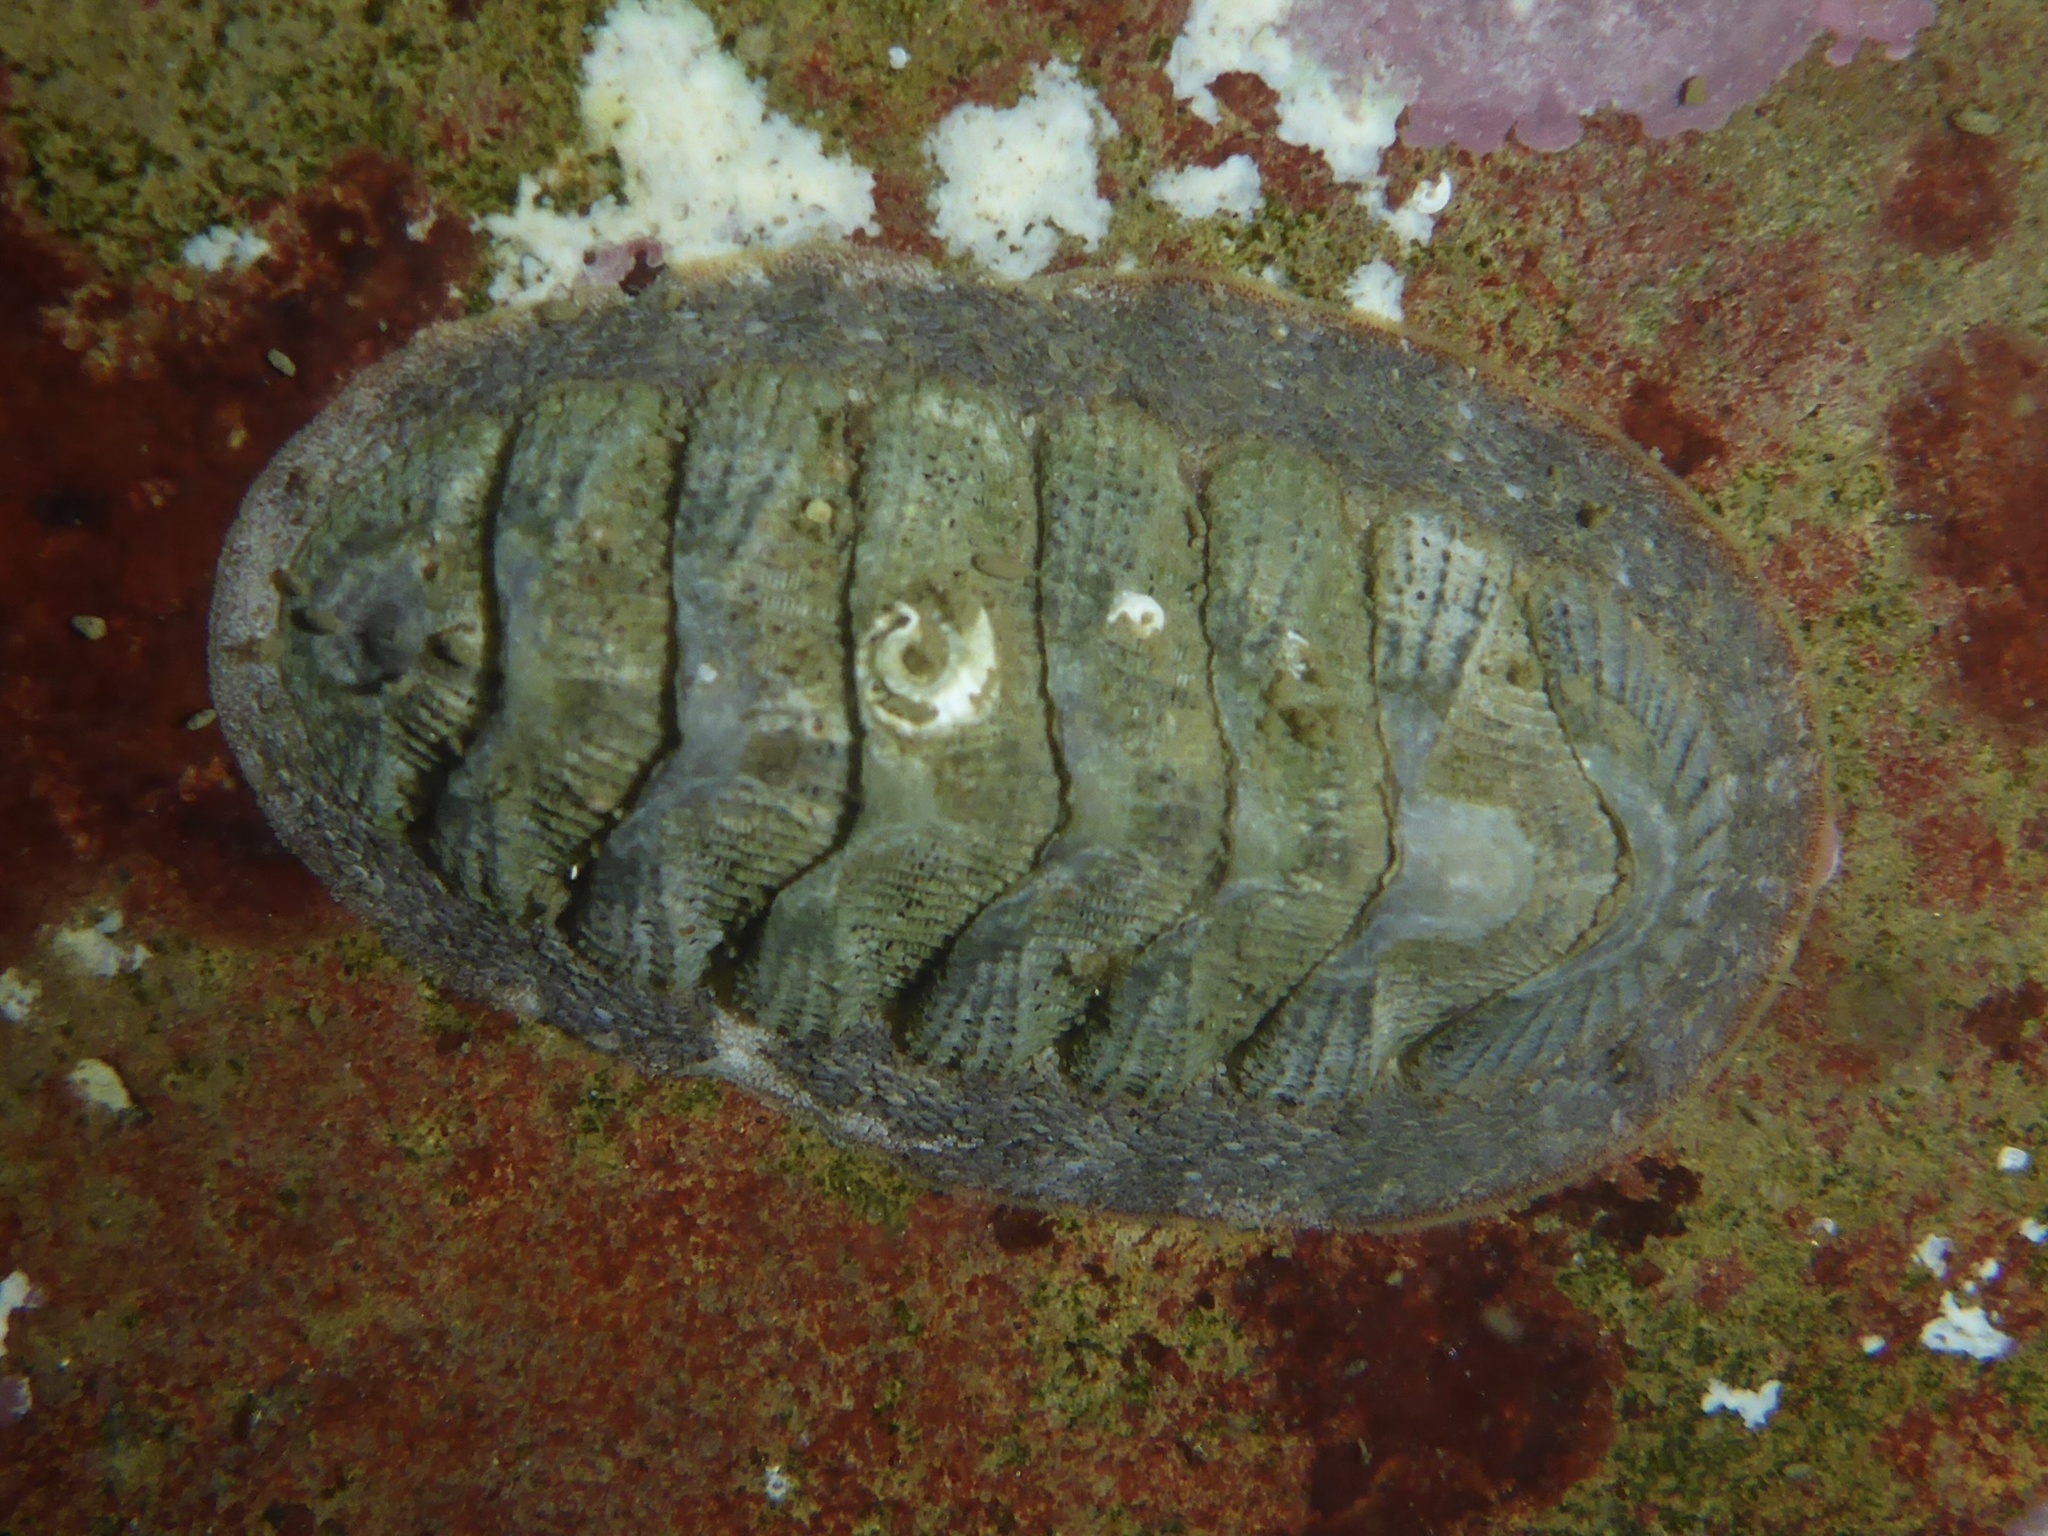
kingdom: Animalia
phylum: Mollusca
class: Polyplacophora
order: Chitonida
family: Ischnochitonidae
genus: Lepidozona
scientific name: Lepidozona cooperi
